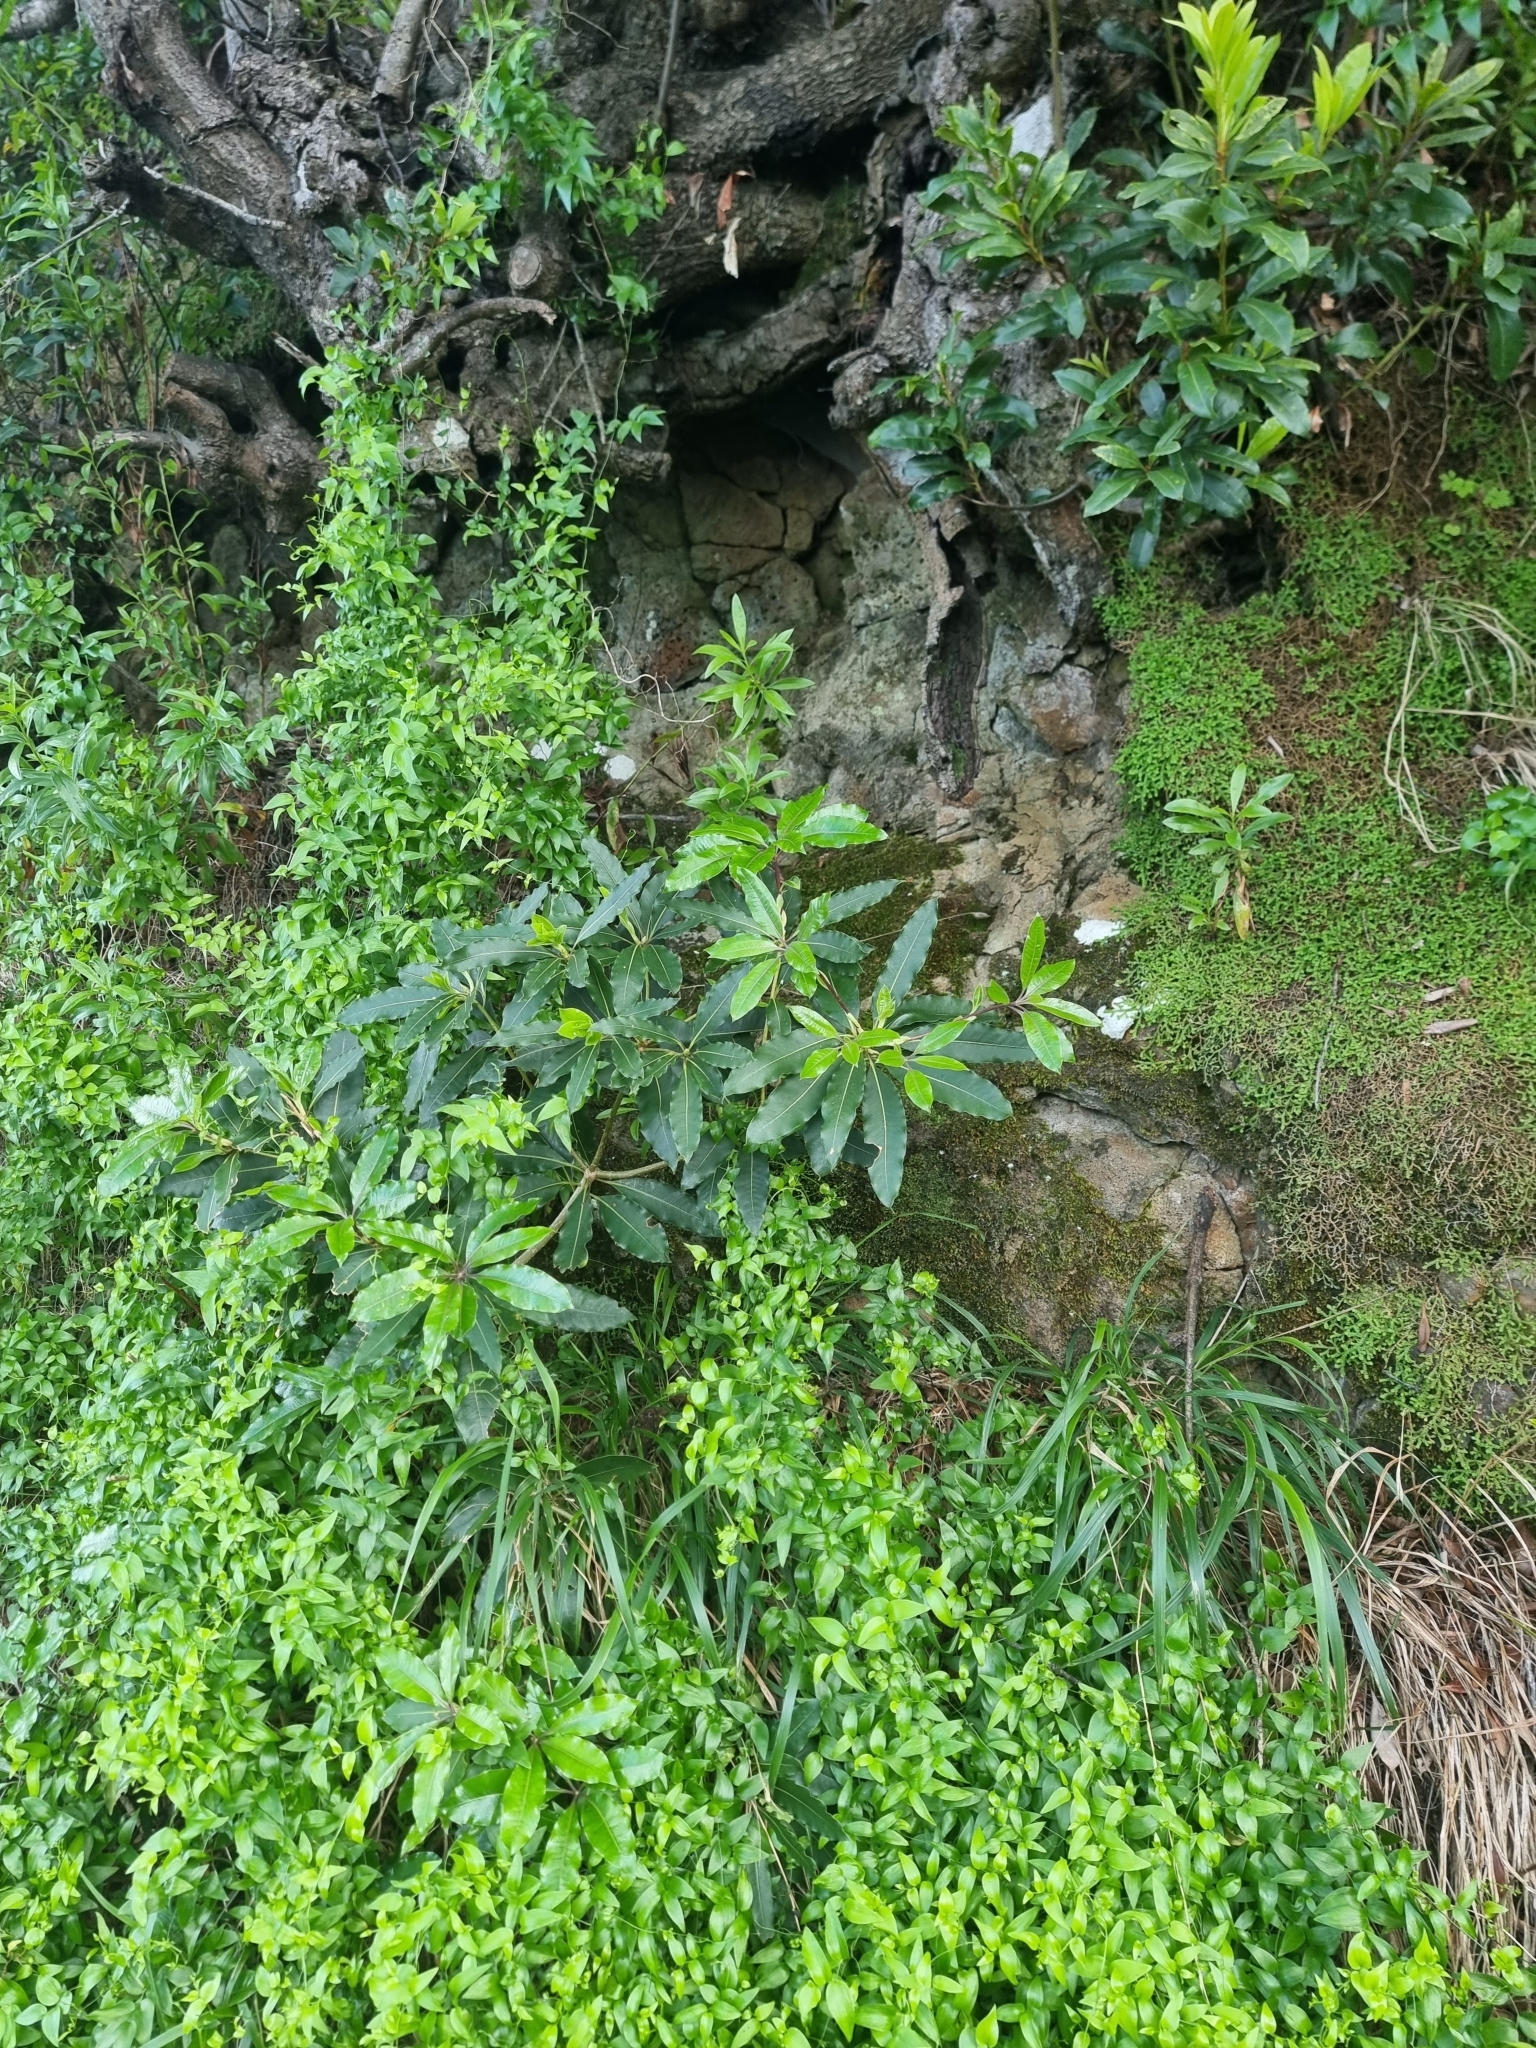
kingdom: Plantae
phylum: Tracheophyta
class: Magnoliopsida
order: Apiales
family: Pittosporaceae
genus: Pittosporum
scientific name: Pittosporum undulatum
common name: Australian cheesewood
